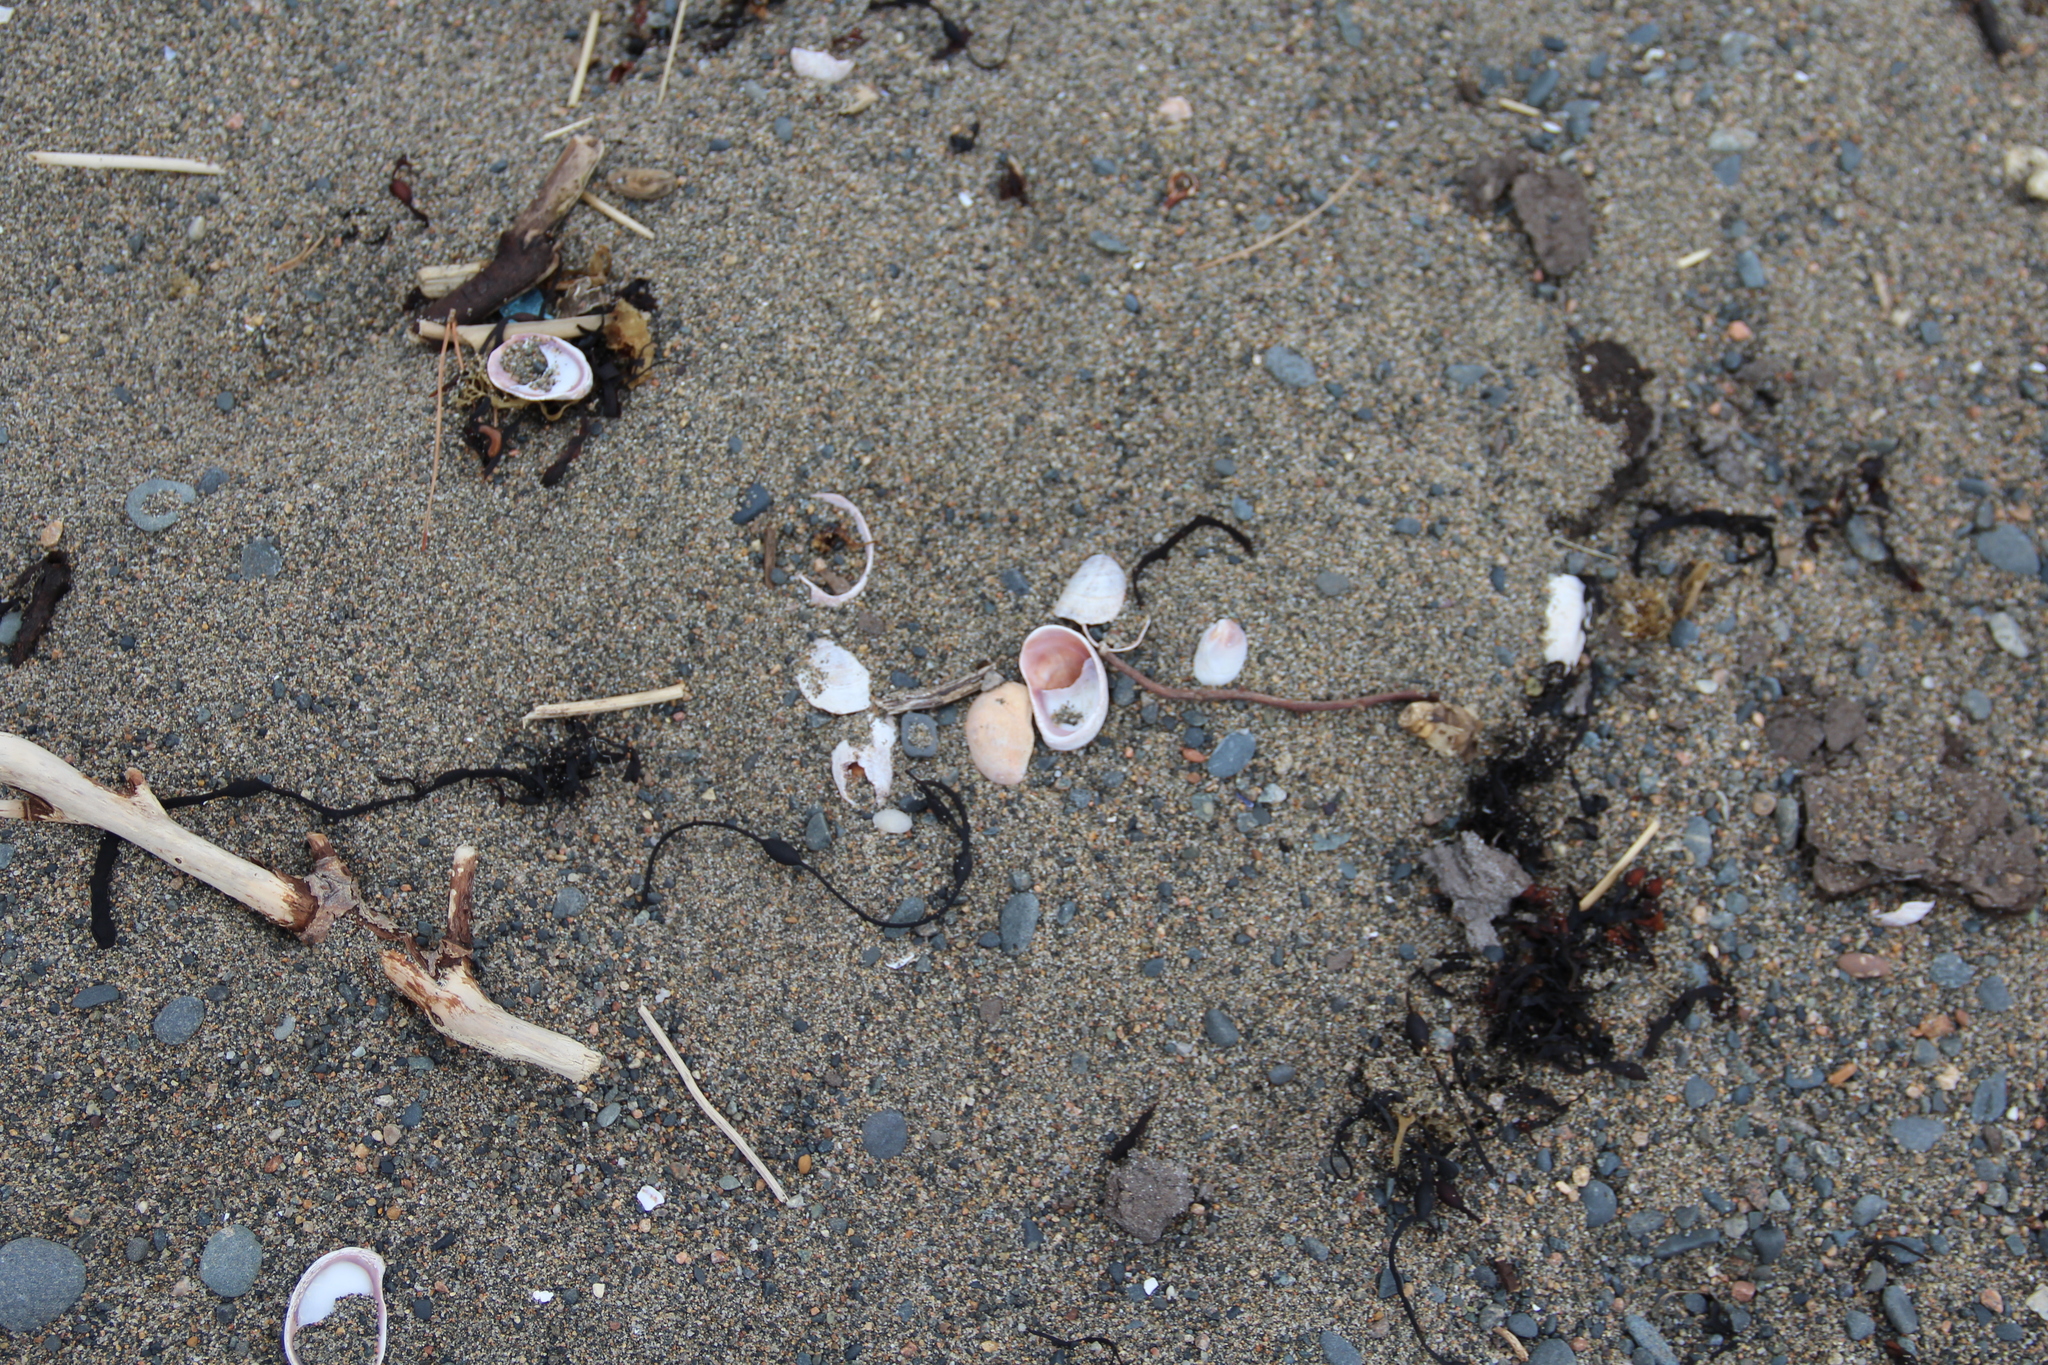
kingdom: Animalia
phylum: Mollusca
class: Gastropoda
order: Littorinimorpha
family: Calyptraeidae
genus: Crepidula
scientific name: Crepidula fornicata
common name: Slipper limpet
